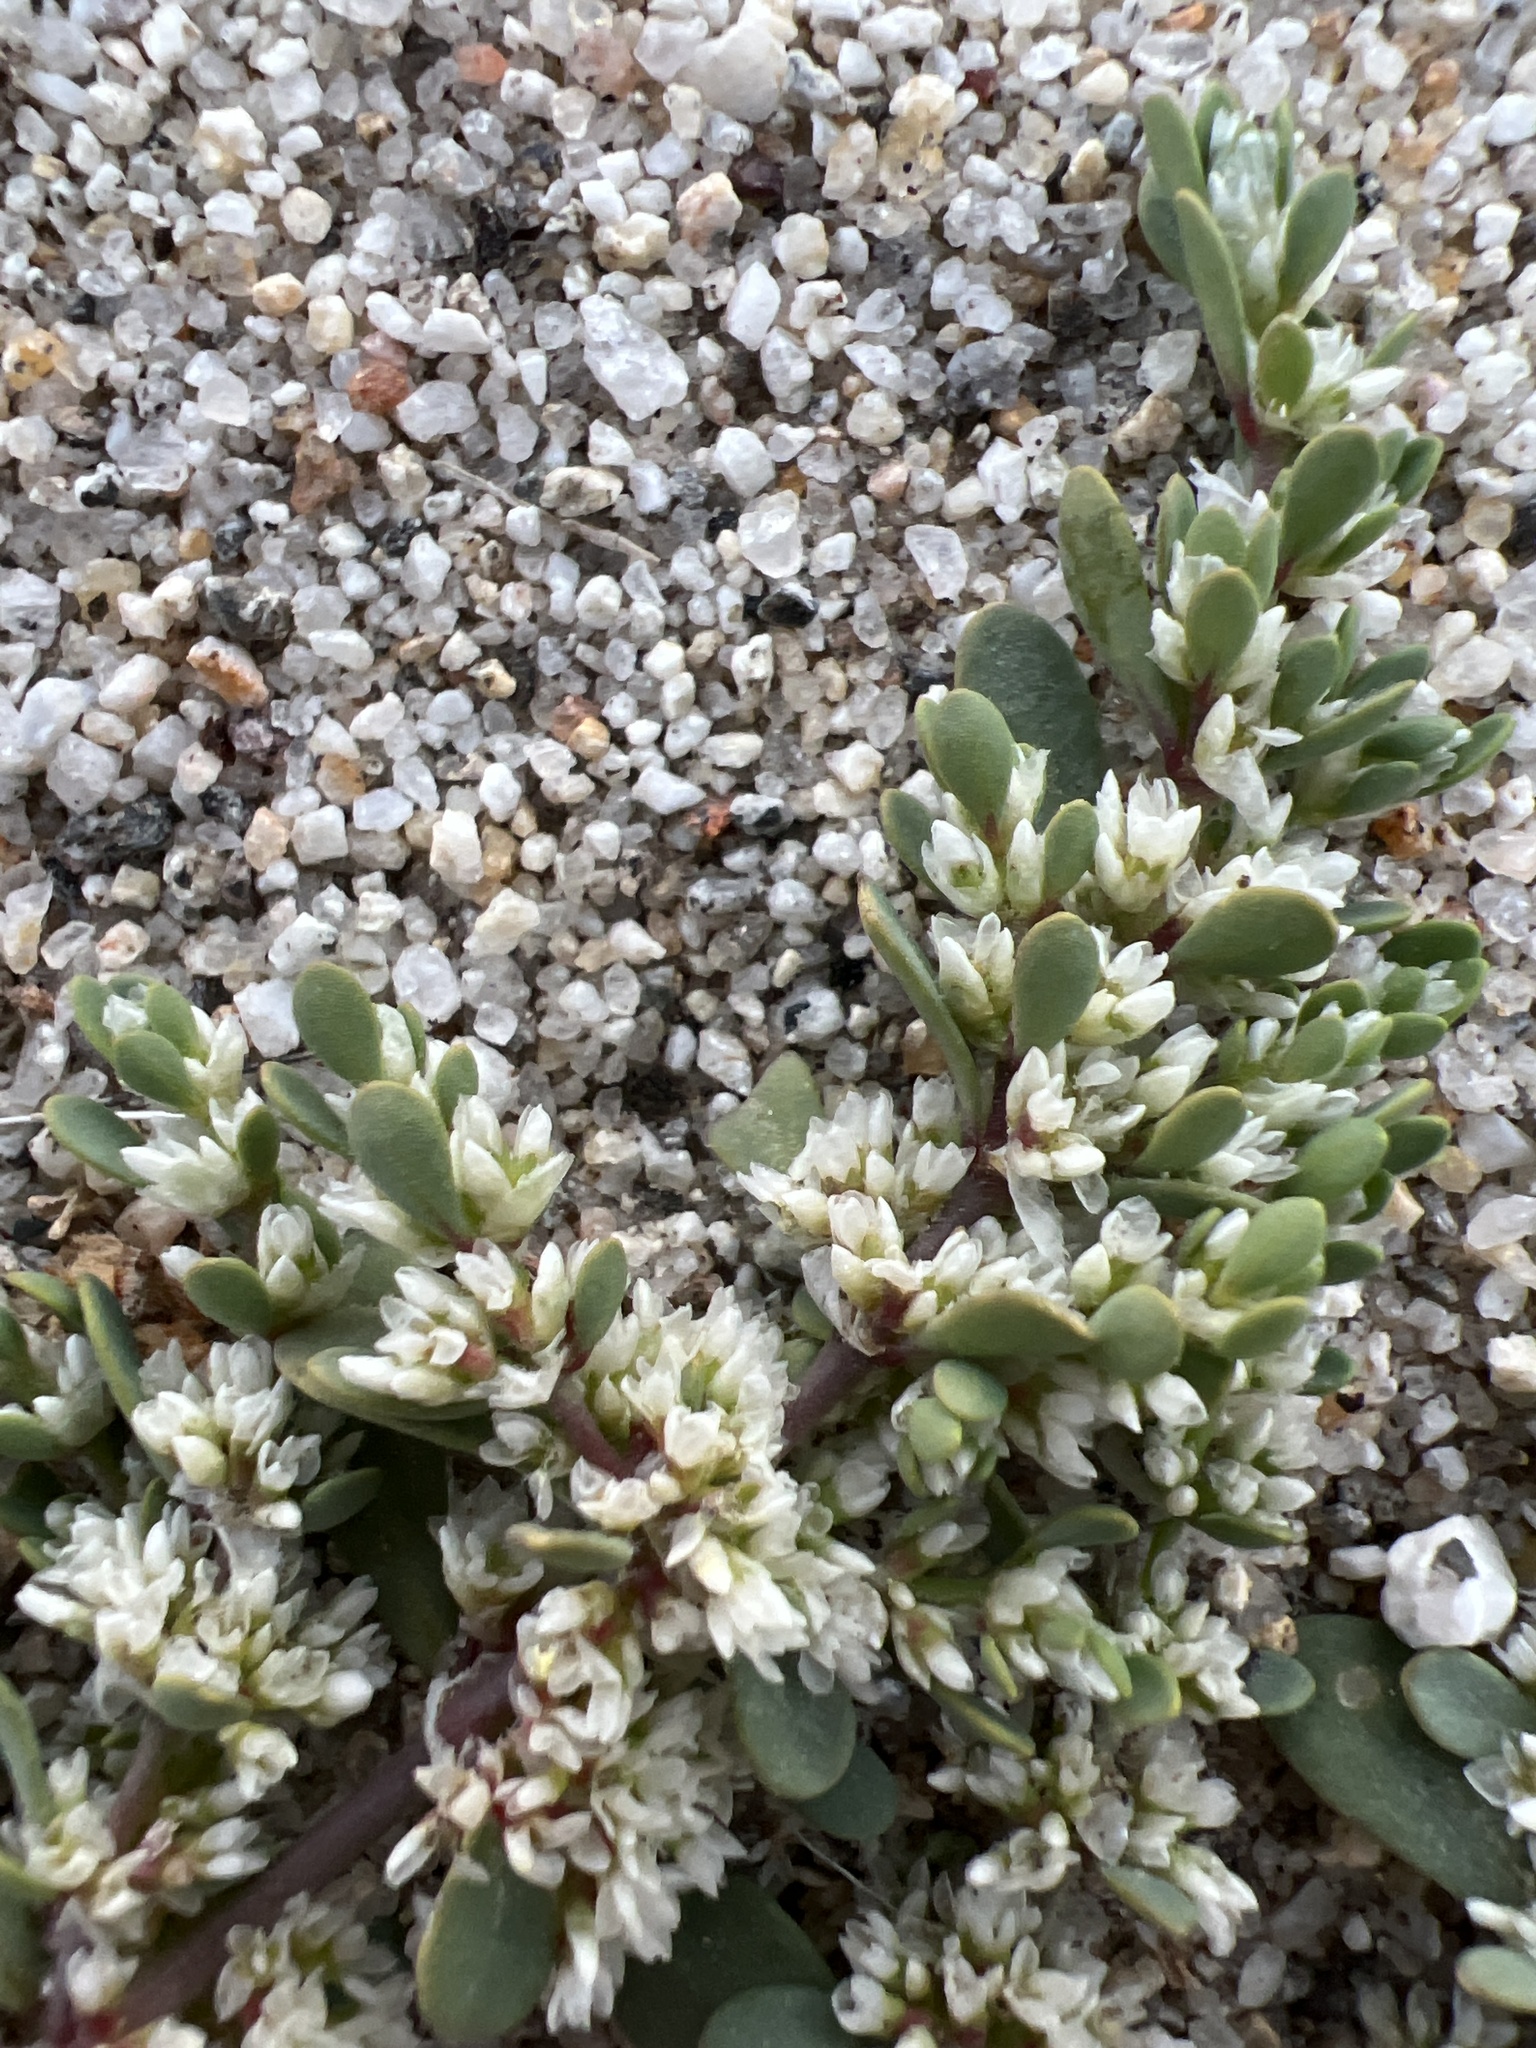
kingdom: Plantae
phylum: Tracheophyta
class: Magnoliopsida
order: Caryophyllales
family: Caryophyllaceae
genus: Achyronychia
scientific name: Achyronychia cooperi
